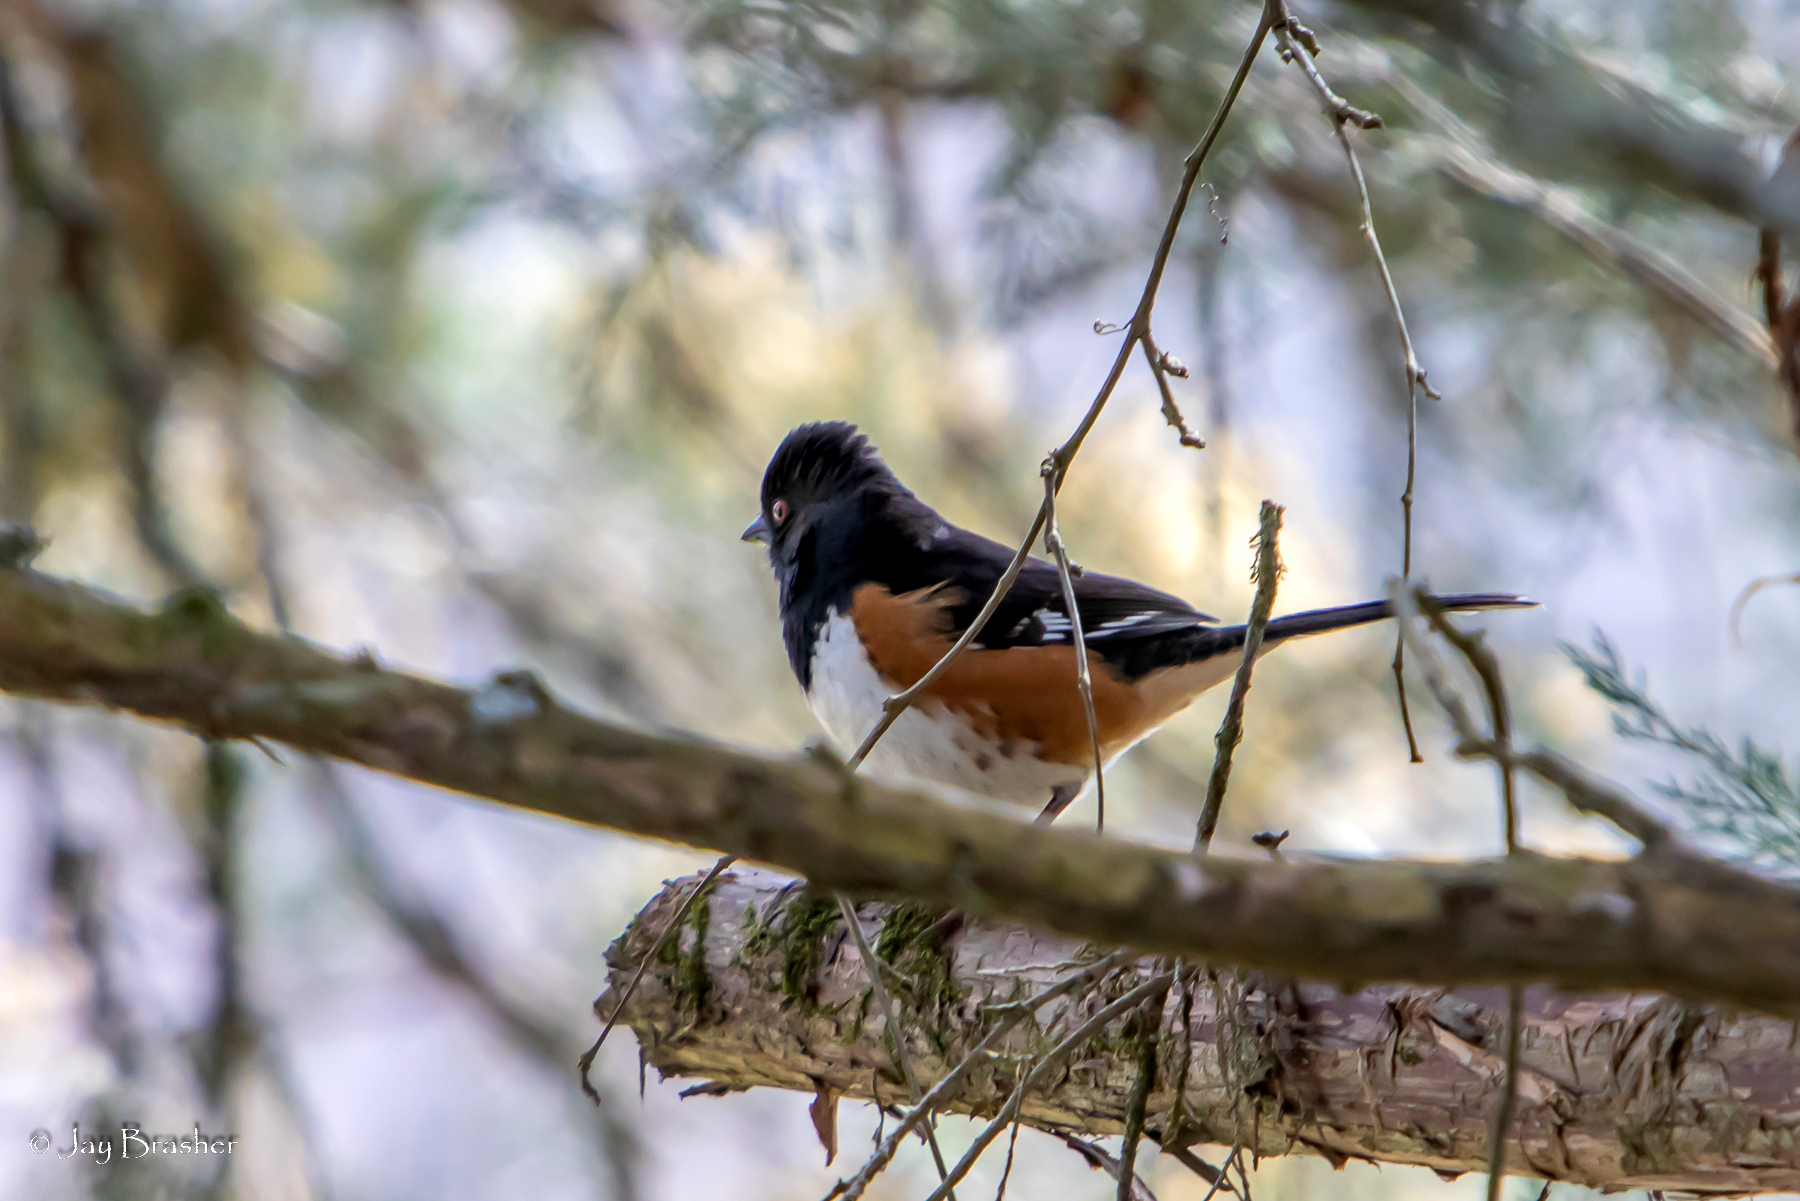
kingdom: Animalia
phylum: Chordata
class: Aves
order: Passeriformes
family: Passerellidae
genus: Pipilo
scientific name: Pipilo erythrophthalmus
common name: Eastern towhee
